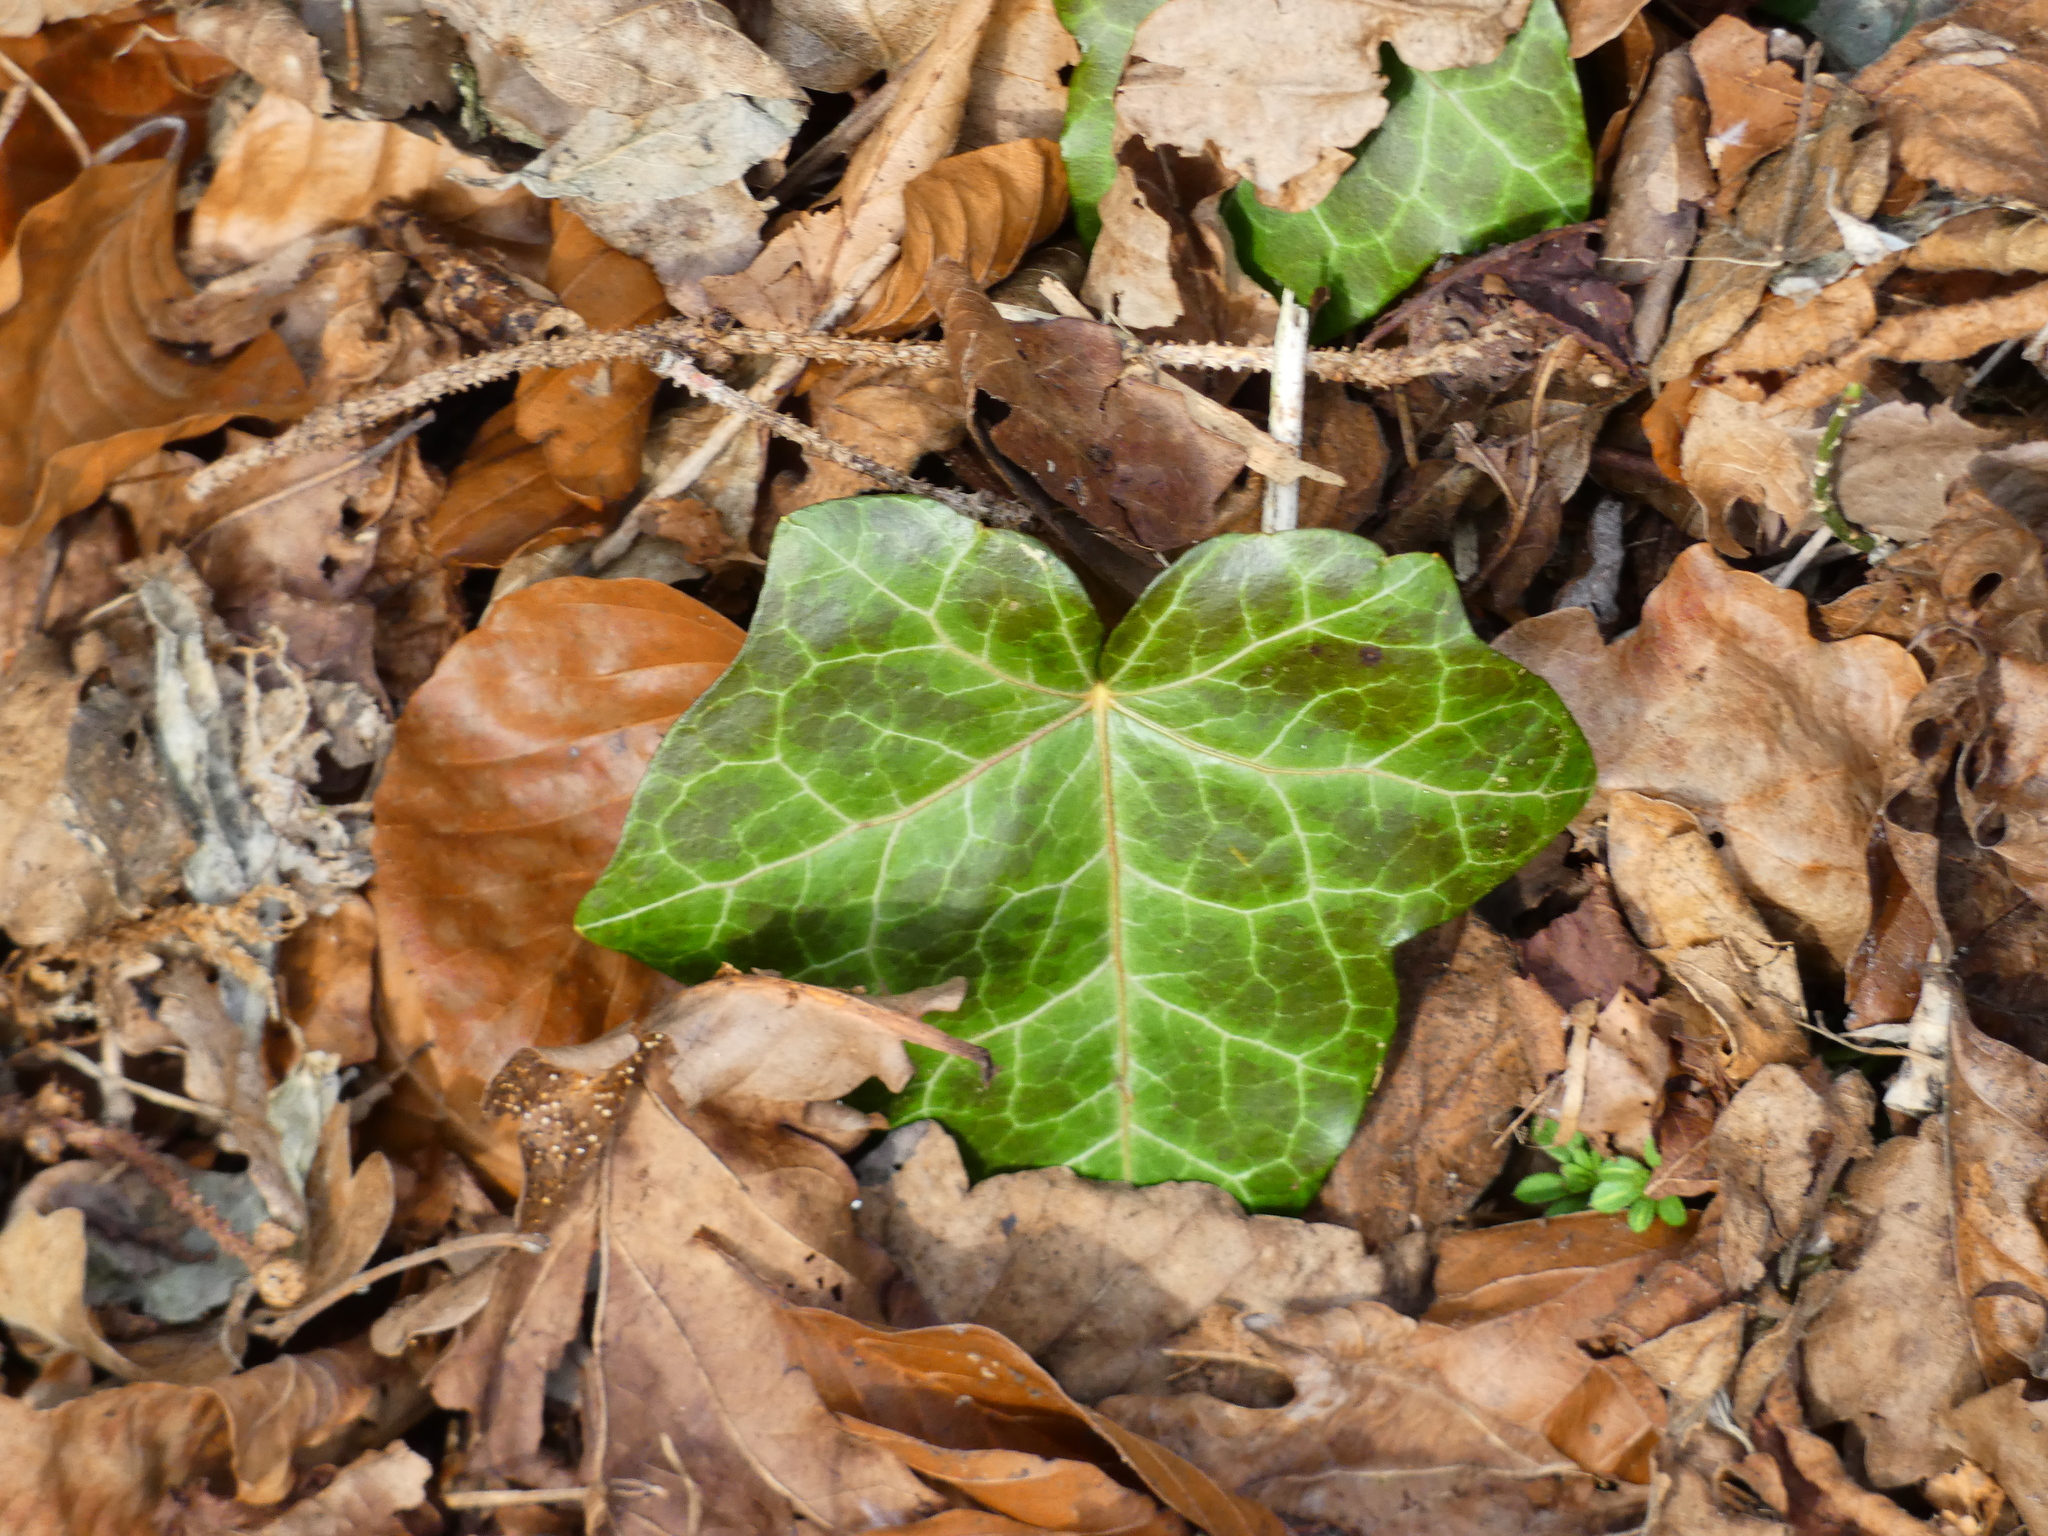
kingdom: Plantae
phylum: Tracheophyta
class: Magnoliopsida
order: Apiales
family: Araliaceae
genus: Hedera
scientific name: Hedera helix
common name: Ivy
